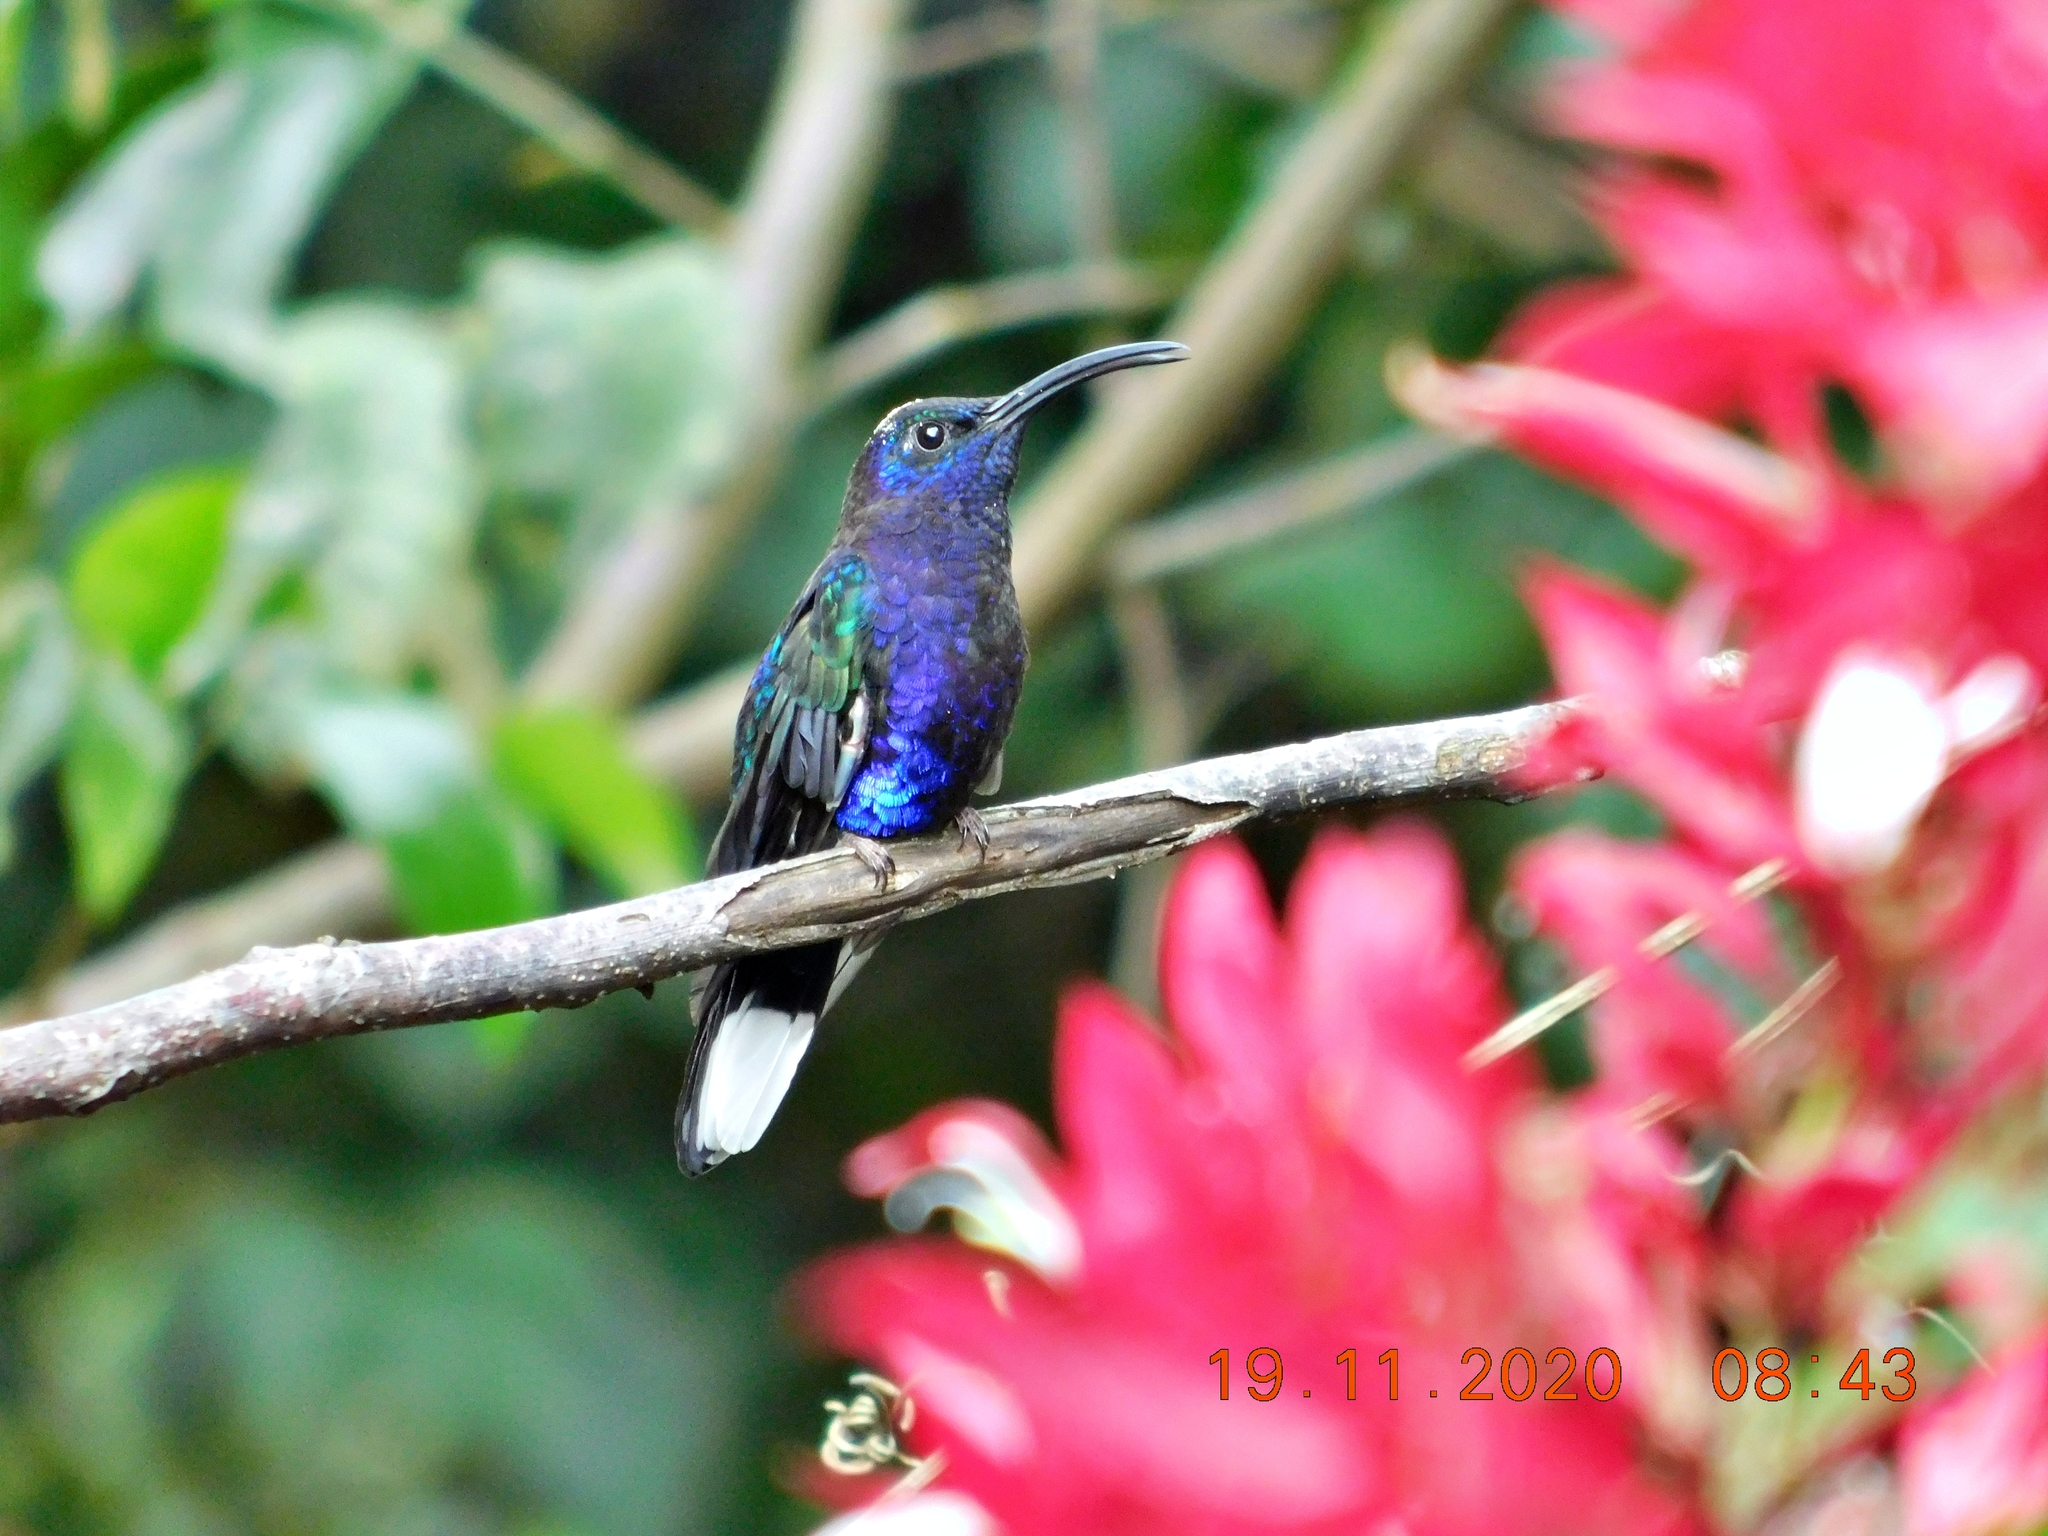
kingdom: Animalia
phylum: Chordata
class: Aves
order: Apodiformes
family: Trochilidae
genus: Campylopterus
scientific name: Campylopterus hemileucurus
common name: Violet sabrewing
